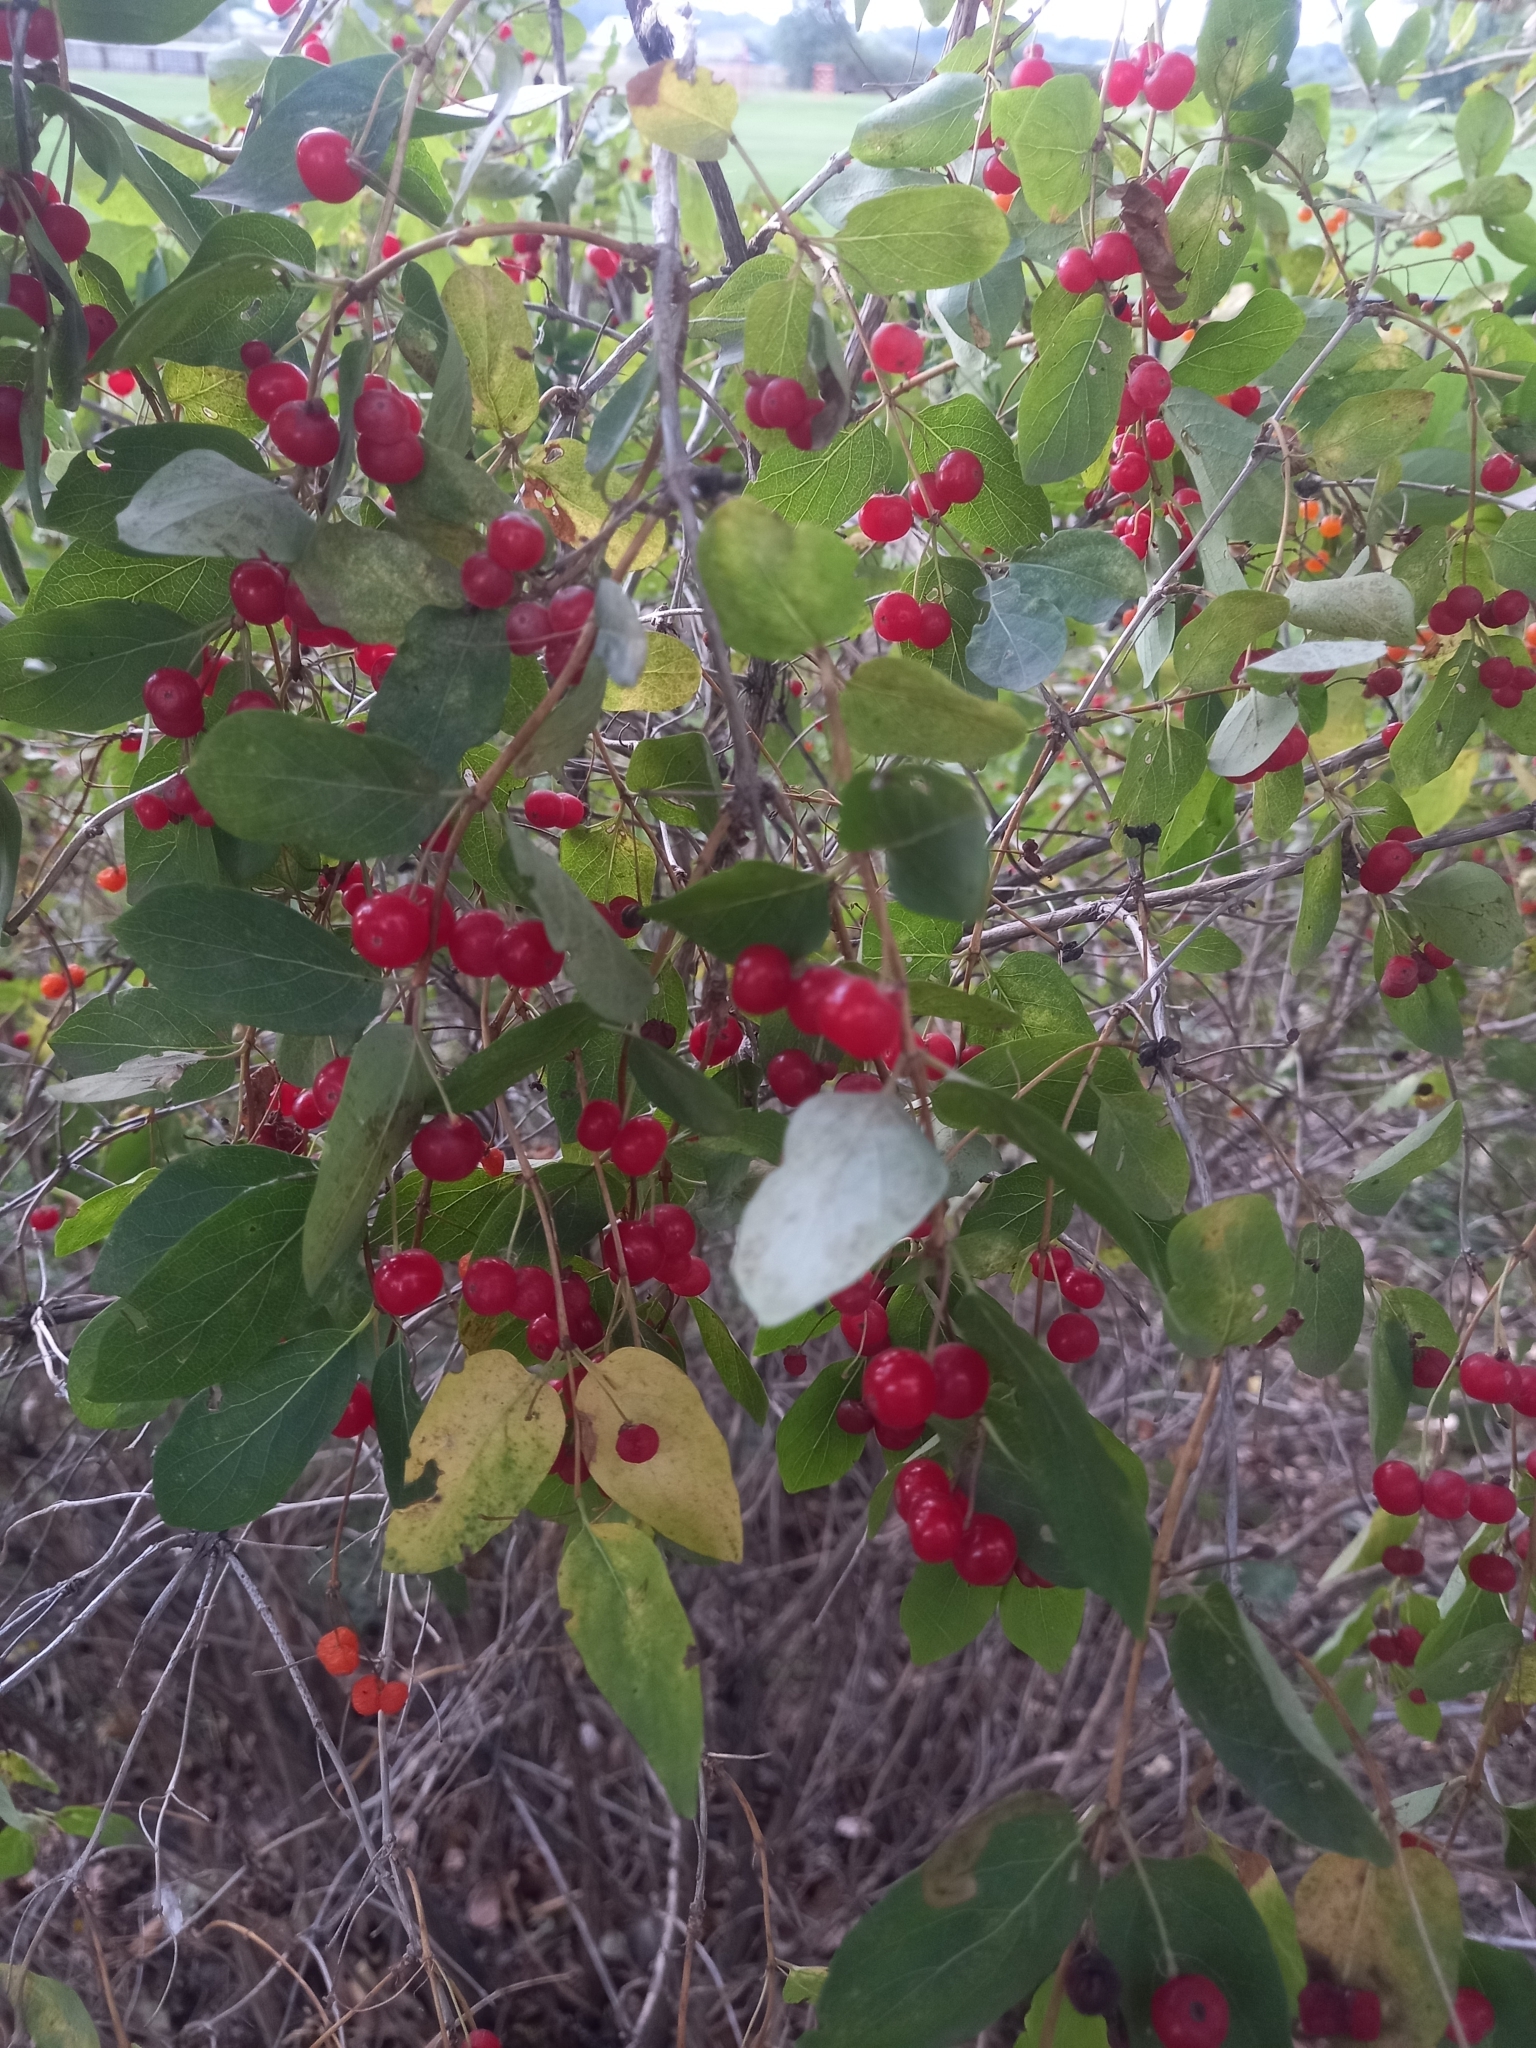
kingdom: Plantae
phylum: Tracheophyta
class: Magnoliopsida
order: Dipsacales
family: Caprifoliaceae
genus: Lonicera
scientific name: Lonicera tatarica
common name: Tatarian honeysuckle
